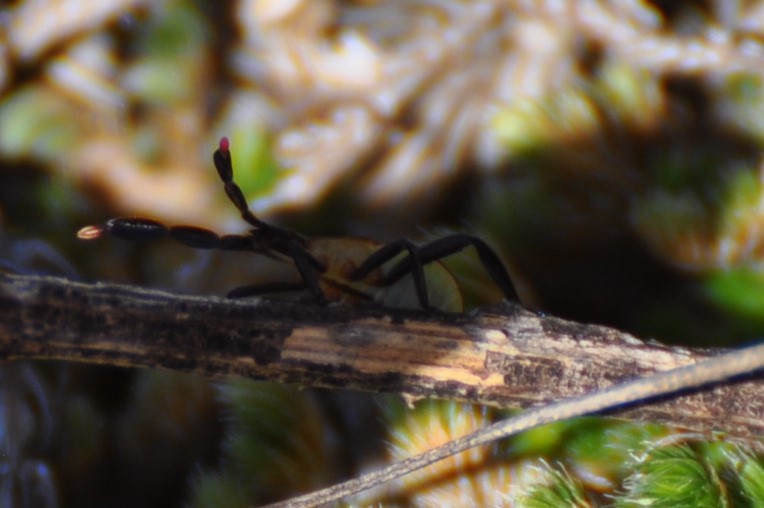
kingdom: Animalia
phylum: Arthropoda
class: Insecta
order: Hemiptera
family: Coreidae
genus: Chelinidea
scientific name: Chelinidea vittiger
